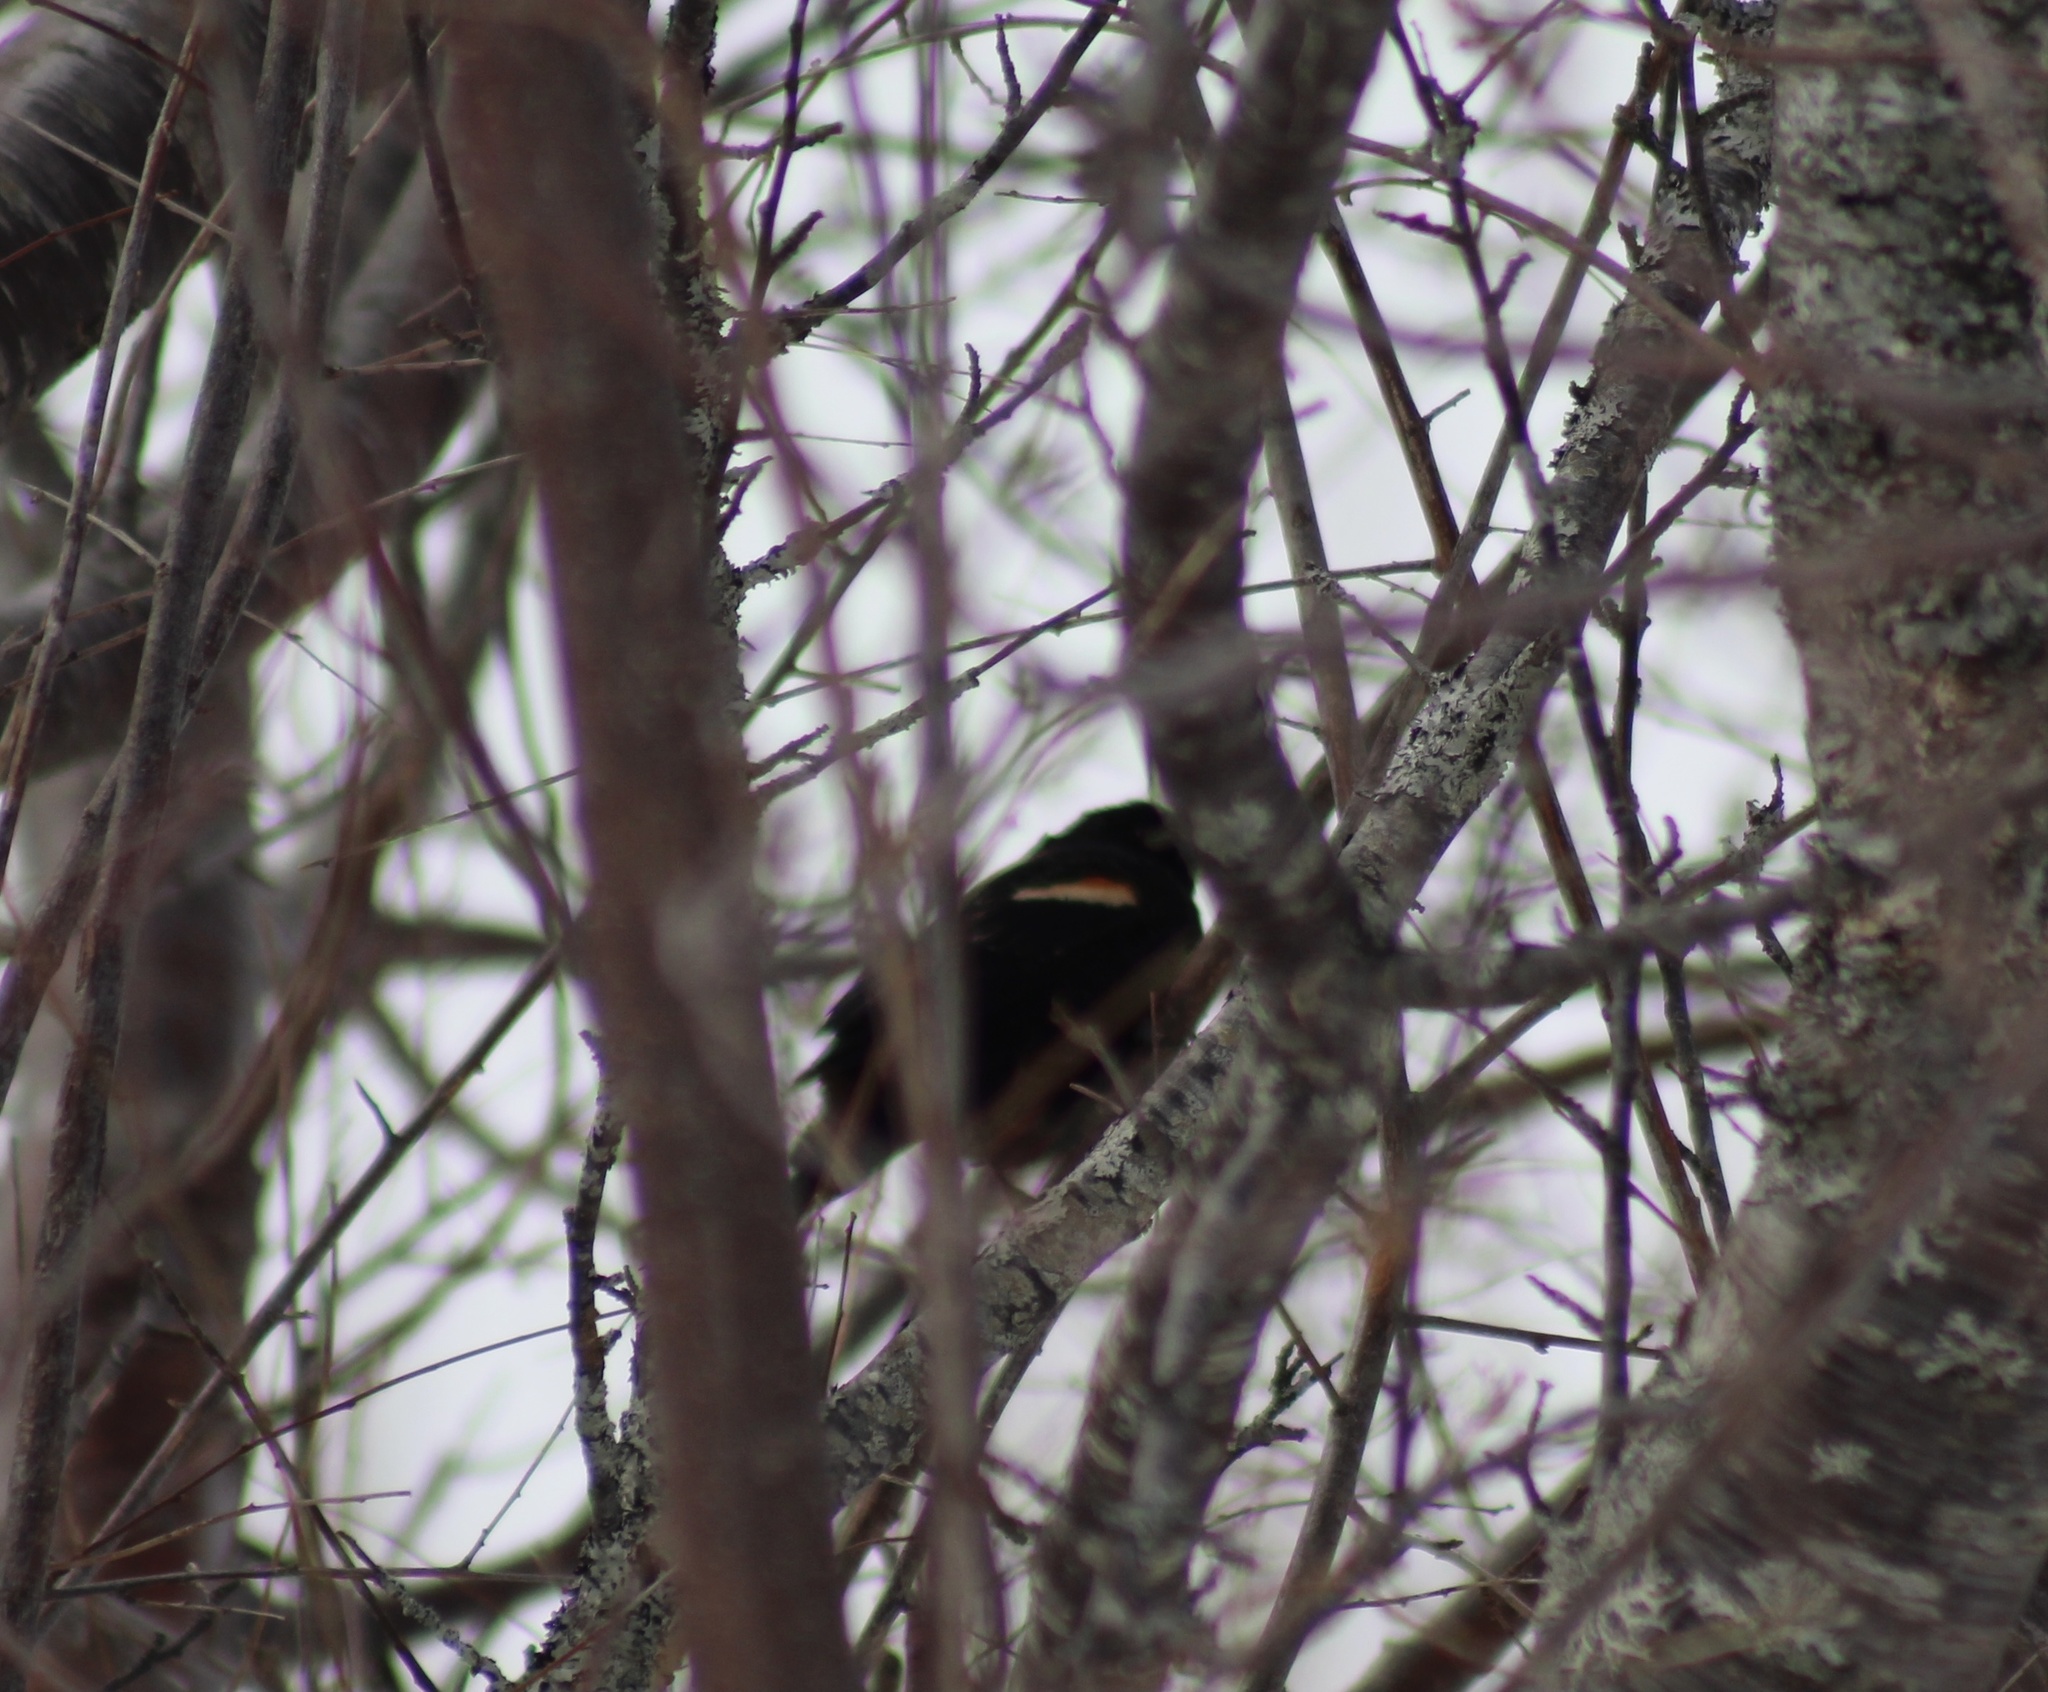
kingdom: Animalia
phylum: Chordata
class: Aves
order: Passeriformes
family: Icteridae
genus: Agelaius
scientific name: Agelaius phoeniceus
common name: Red-winged blackbird
